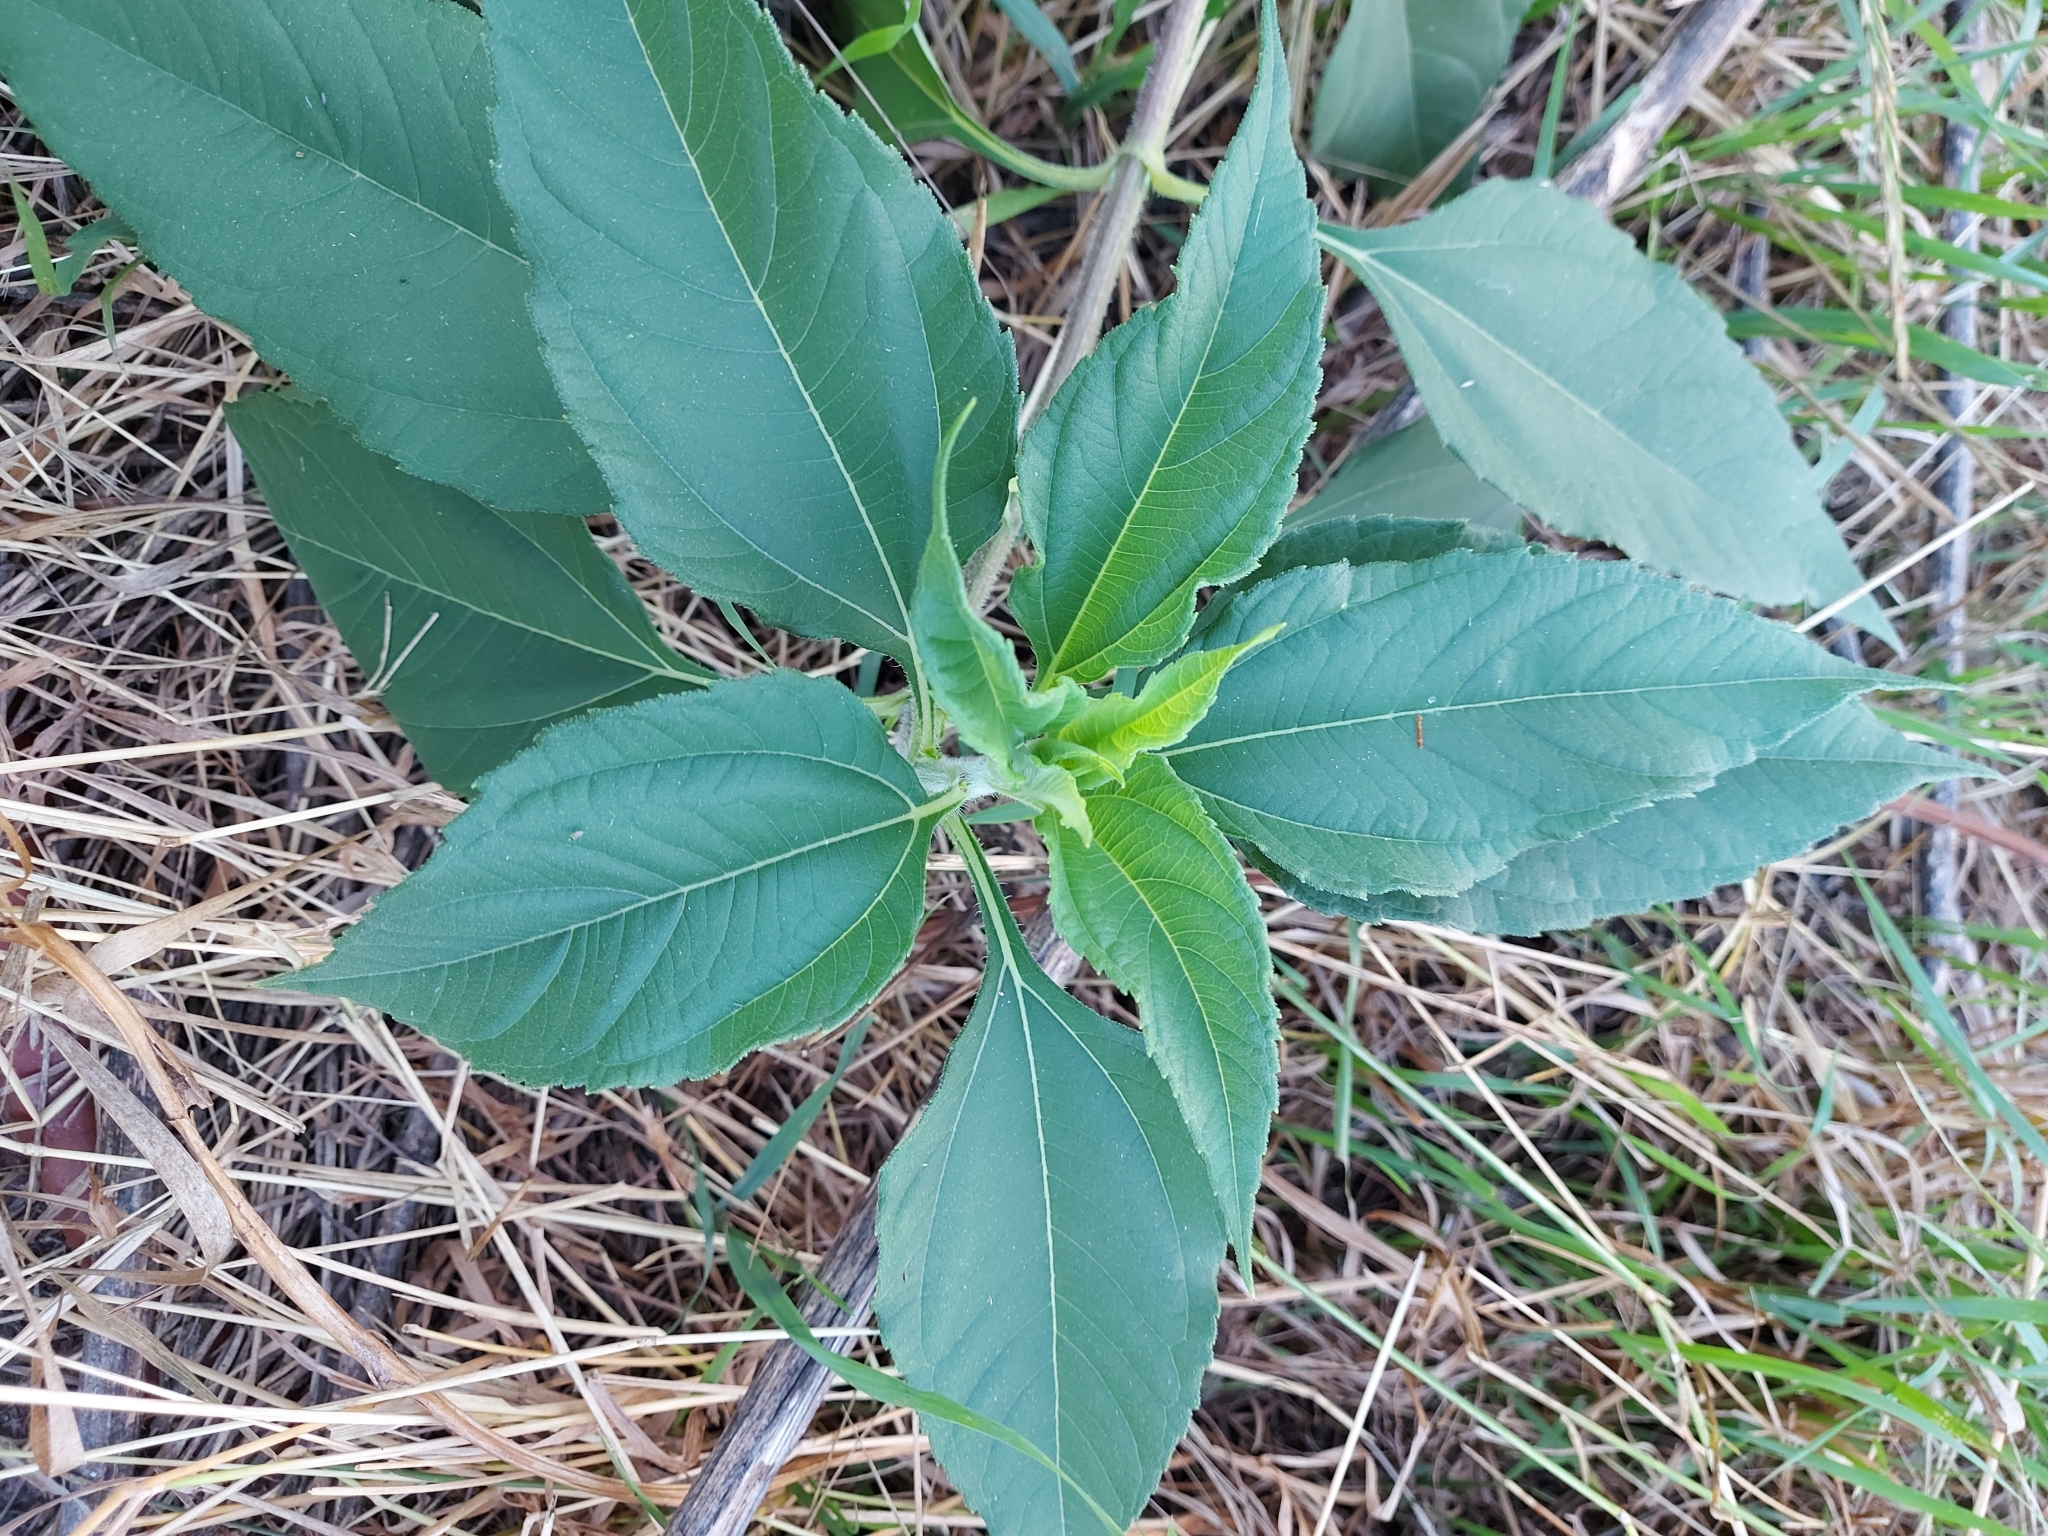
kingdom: Plantae
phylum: Tracheophyta
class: Magnoliopsida
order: Asterales
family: Asteraceae
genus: Helianthus
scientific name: Helianthus tuberosus
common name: Jerusalem artichoke
